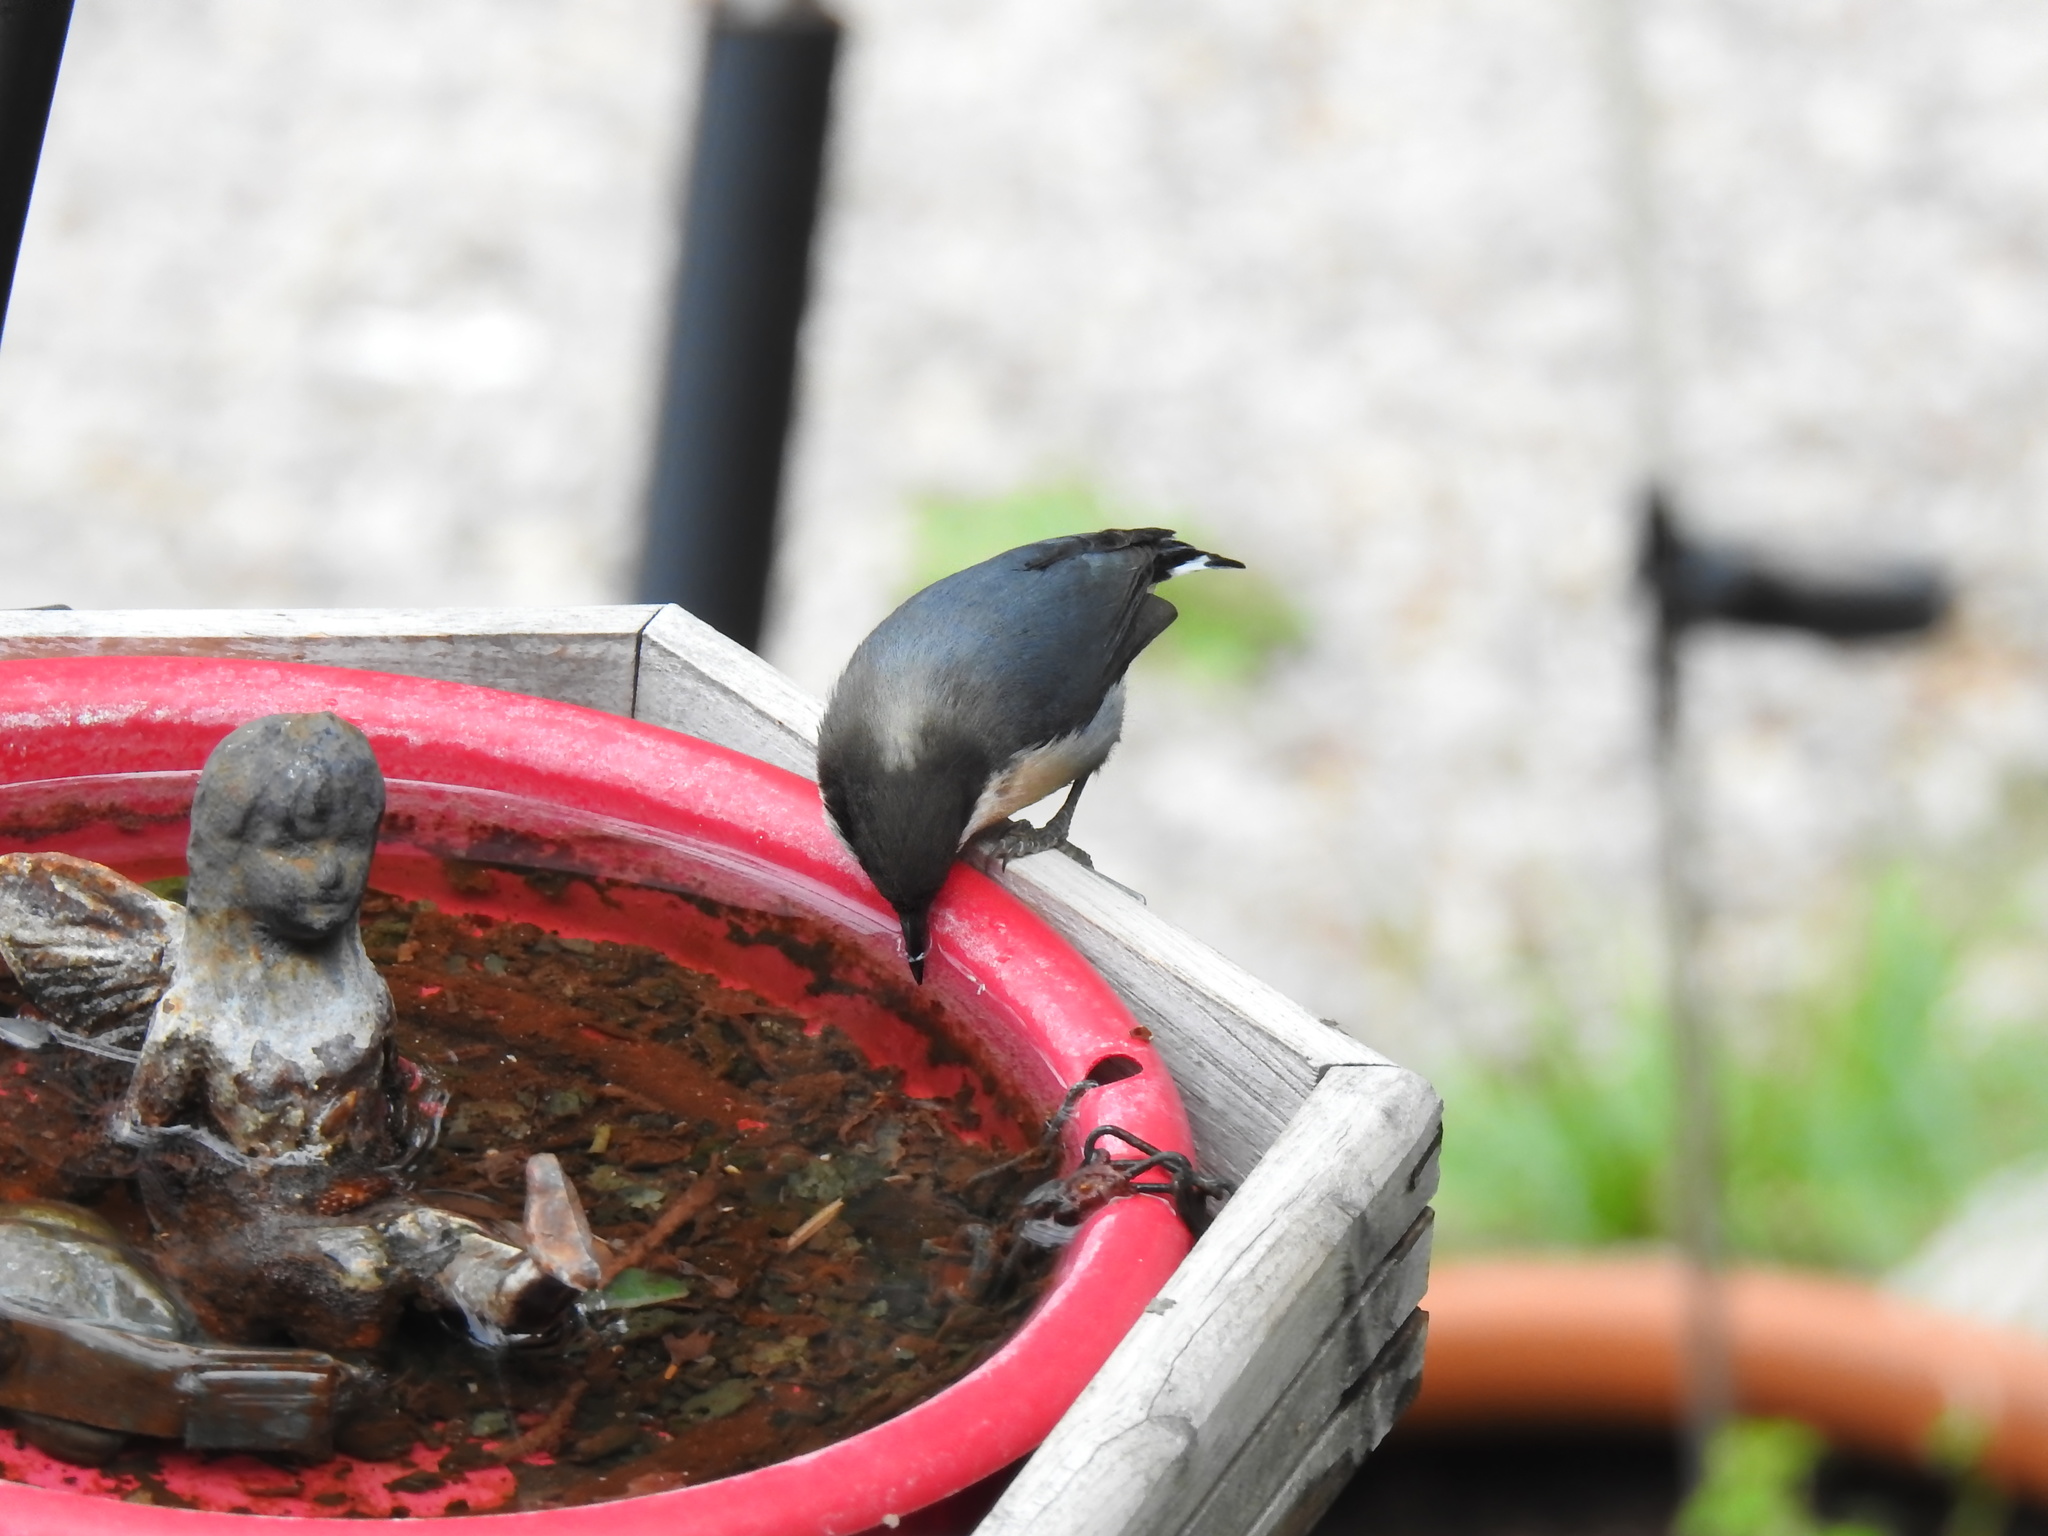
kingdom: Animalia
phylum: Chordata
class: Aves
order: Passeriformes
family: Sittidae
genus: Sitta
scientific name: Sitta pygmaea
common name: Pygmy nuthatch
